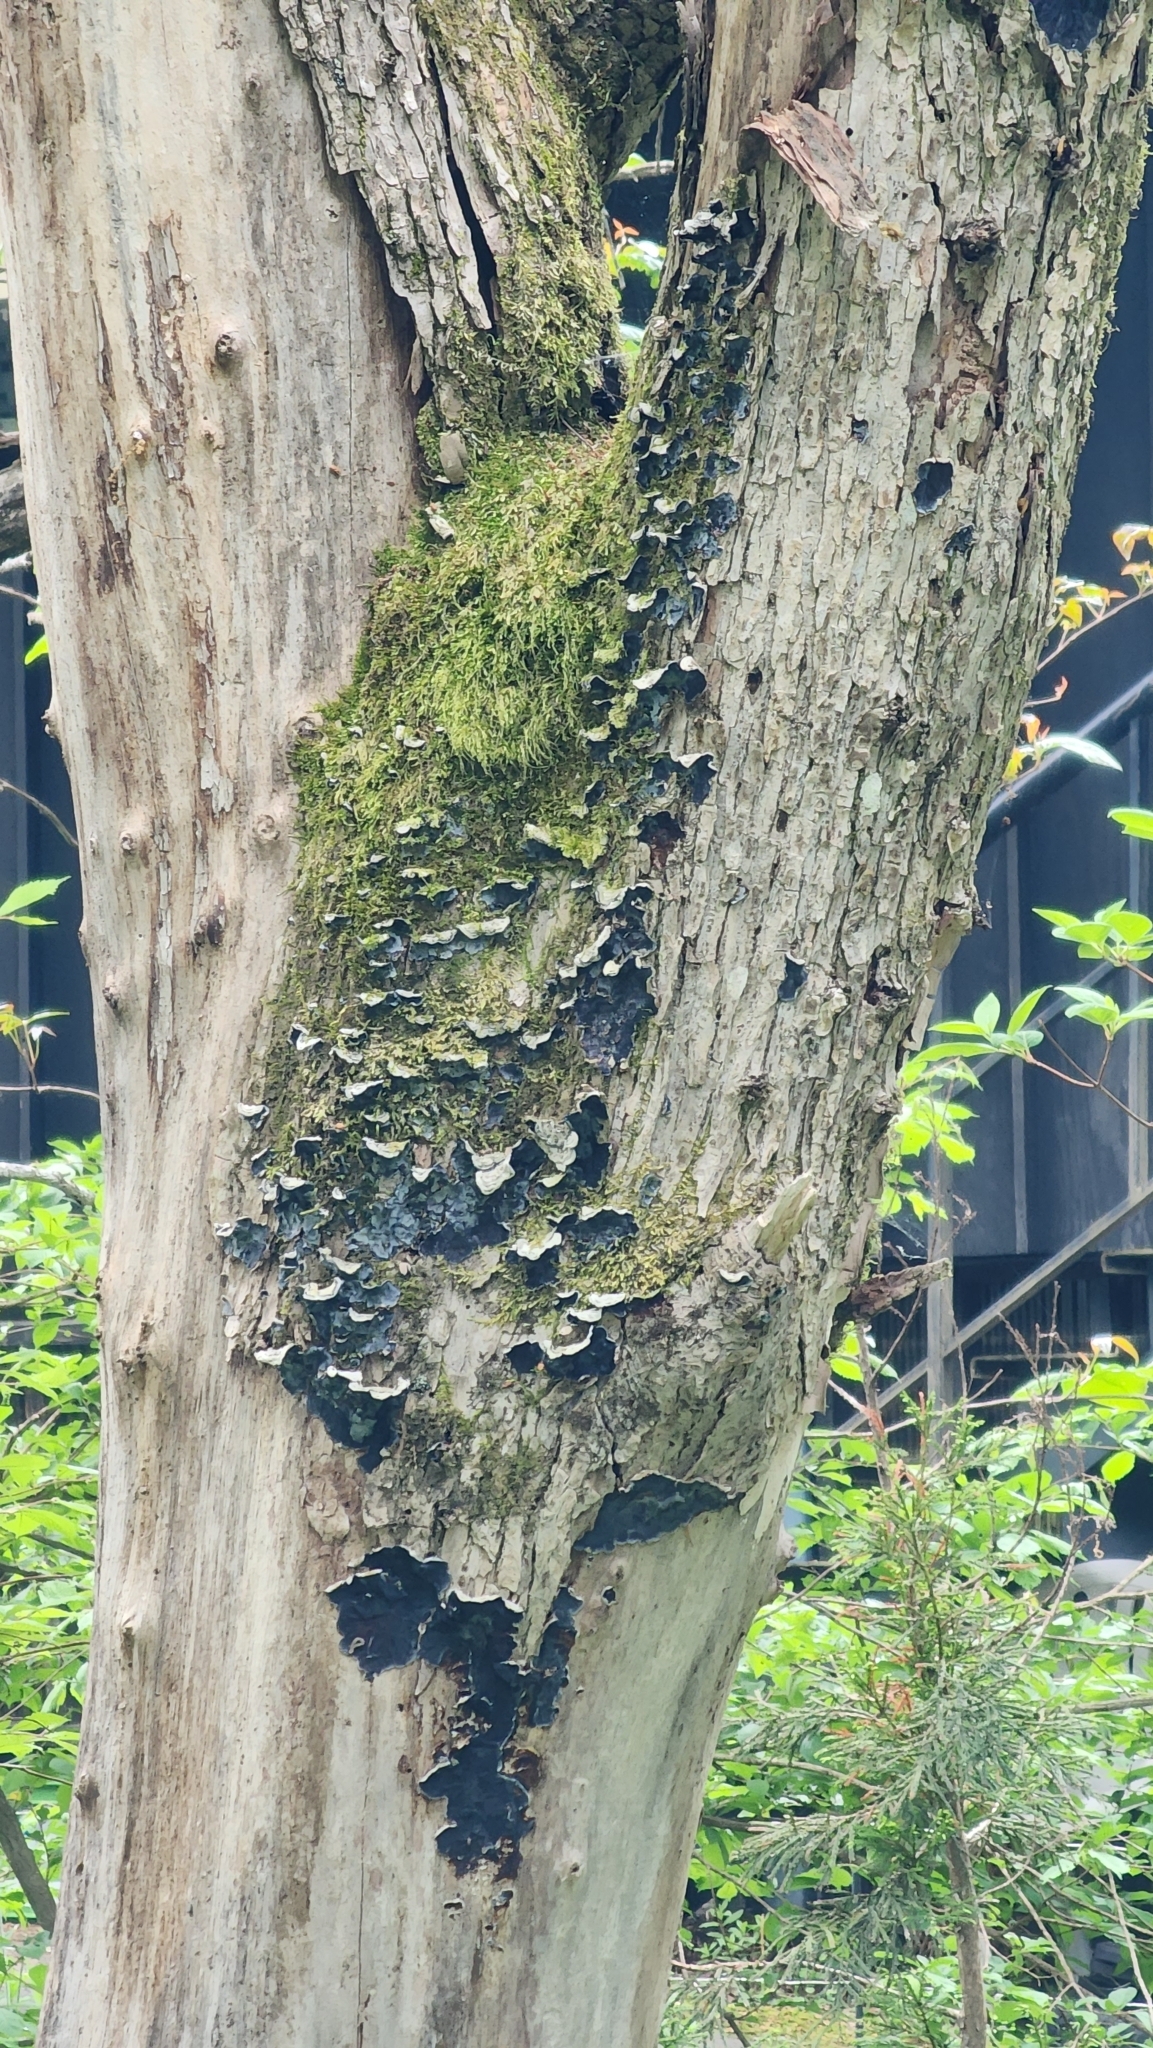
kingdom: Fungi
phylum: Basidiomycota
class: Agaricomycetes
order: Corticiales
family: Punctulariaceae
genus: Punctularia
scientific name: Punctularia strigosozonata
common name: White-rot fungus
